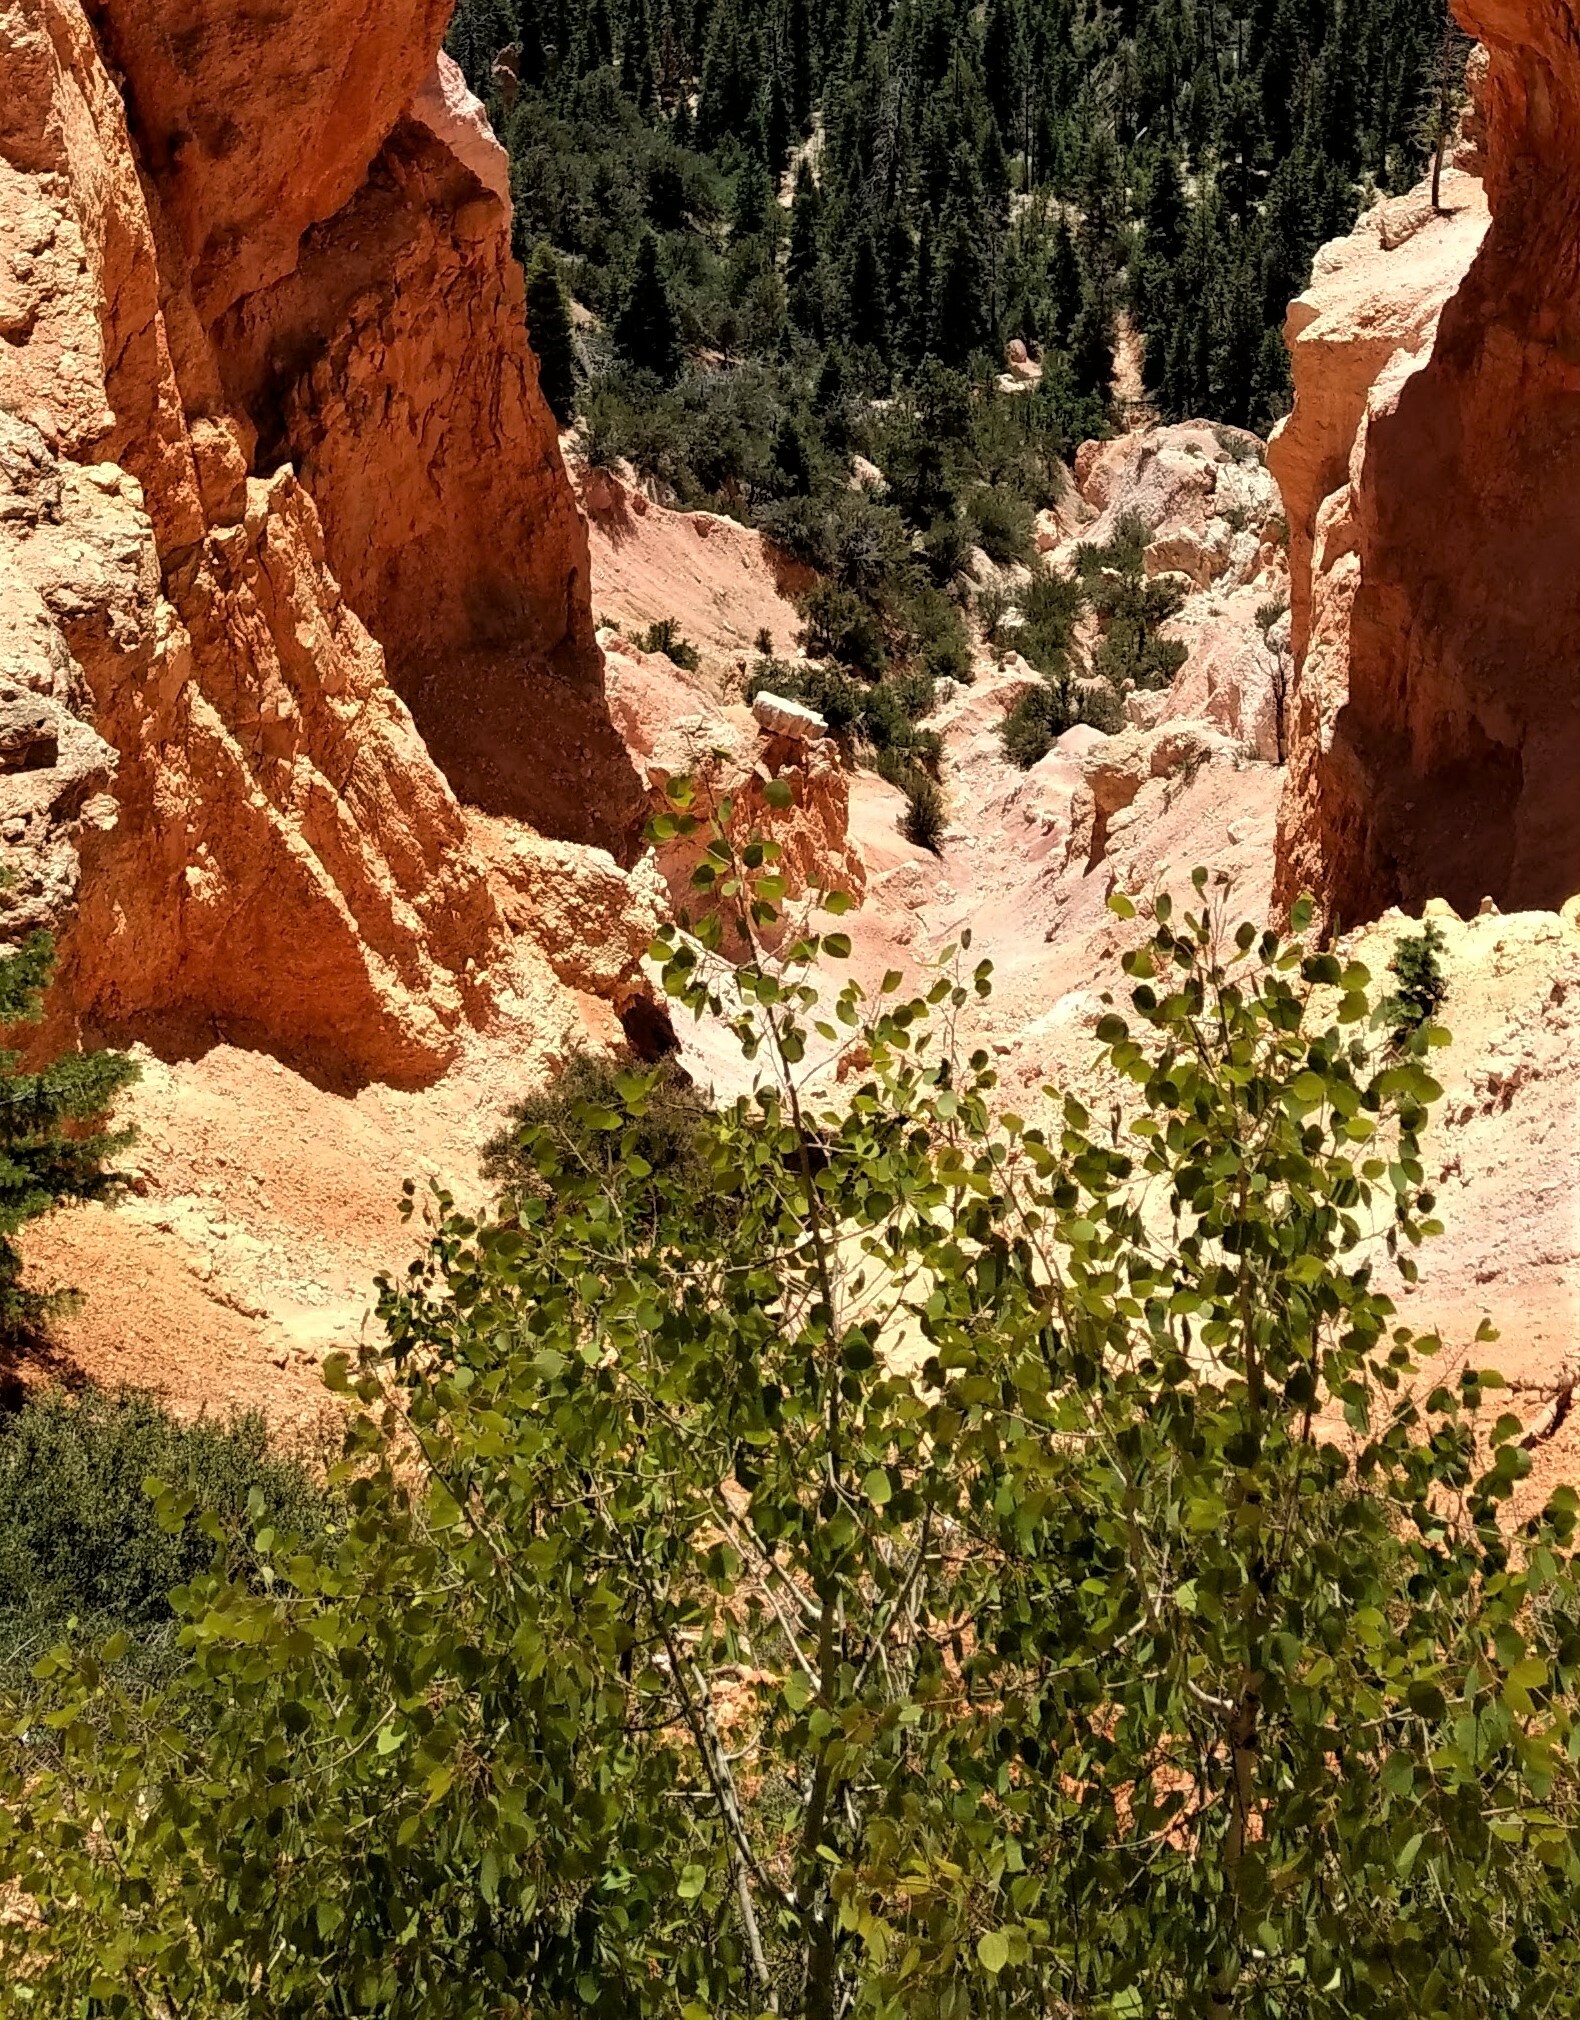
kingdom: Plantae
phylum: Tracheophyta
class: Magnoliopsida
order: Malpighiales
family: Salicaceae
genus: Populus
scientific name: Populus tremuloides
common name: Quaking aspen
